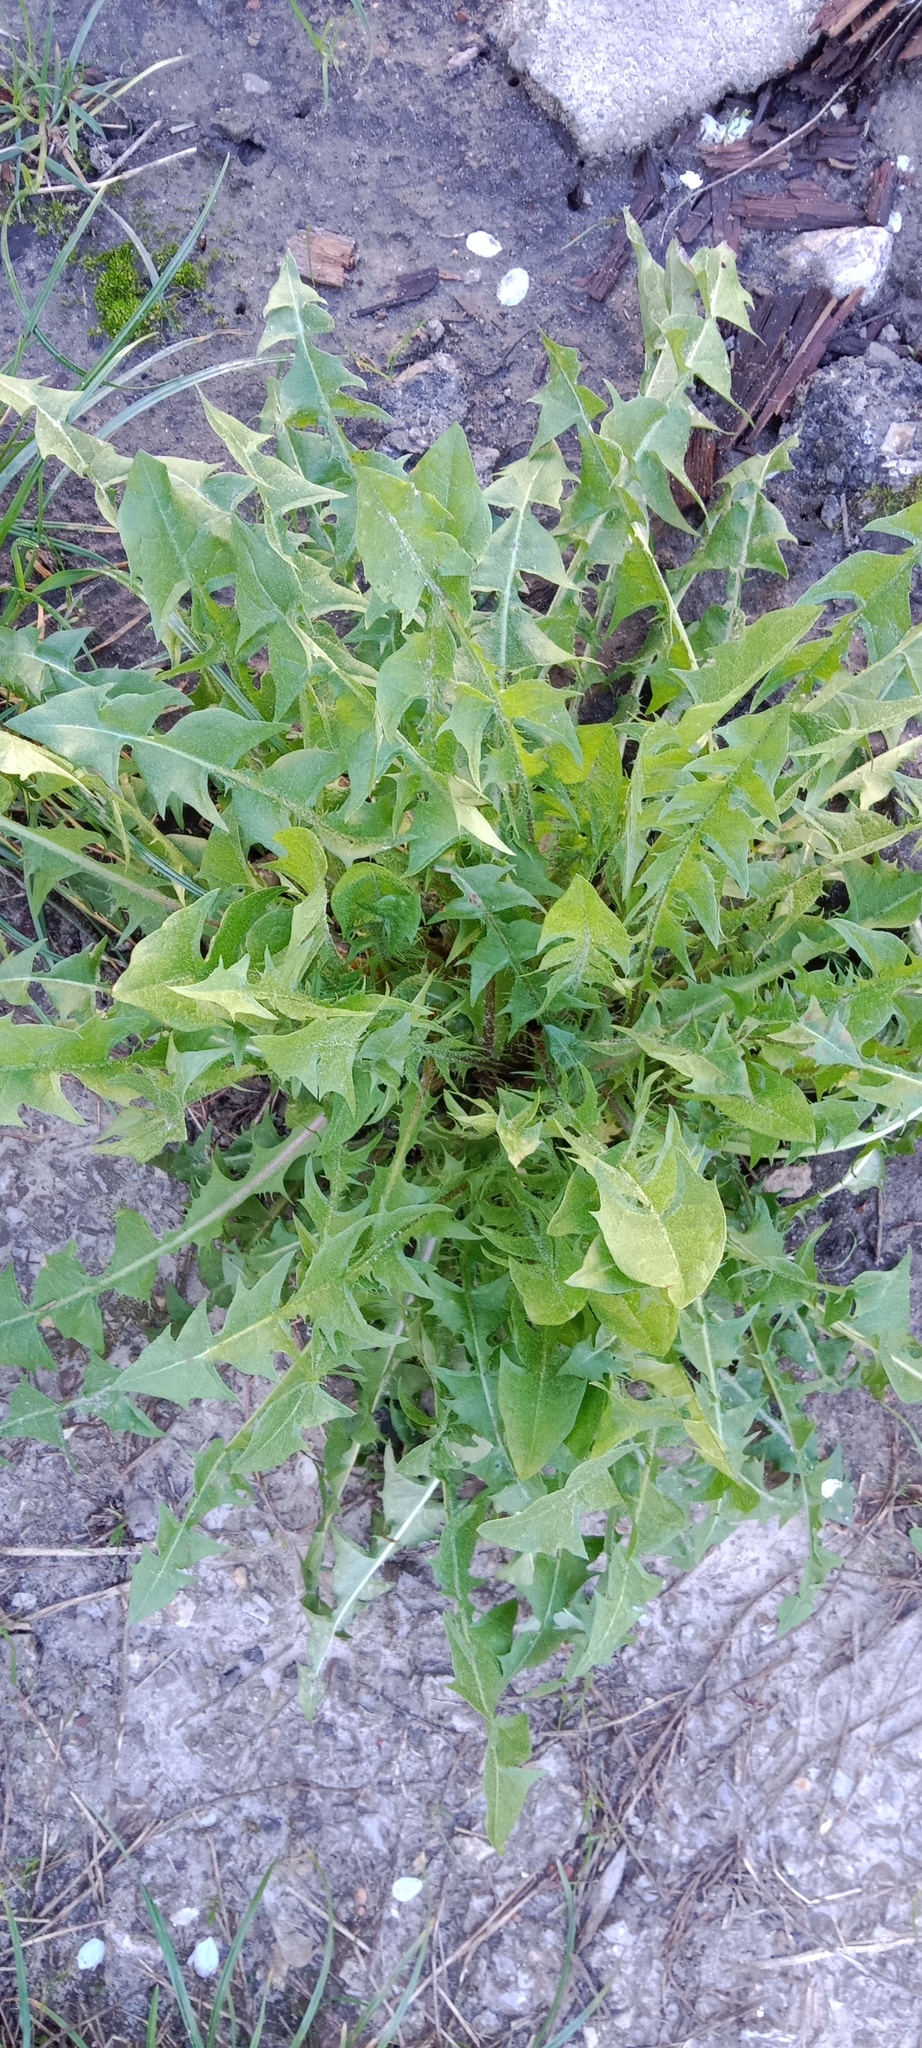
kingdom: Plantae
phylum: Tracheophyta
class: Magnoliopsida
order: Asterales
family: Asteraceae
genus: Taraxacum
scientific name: Taraxacum officinale
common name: Common dandelion
